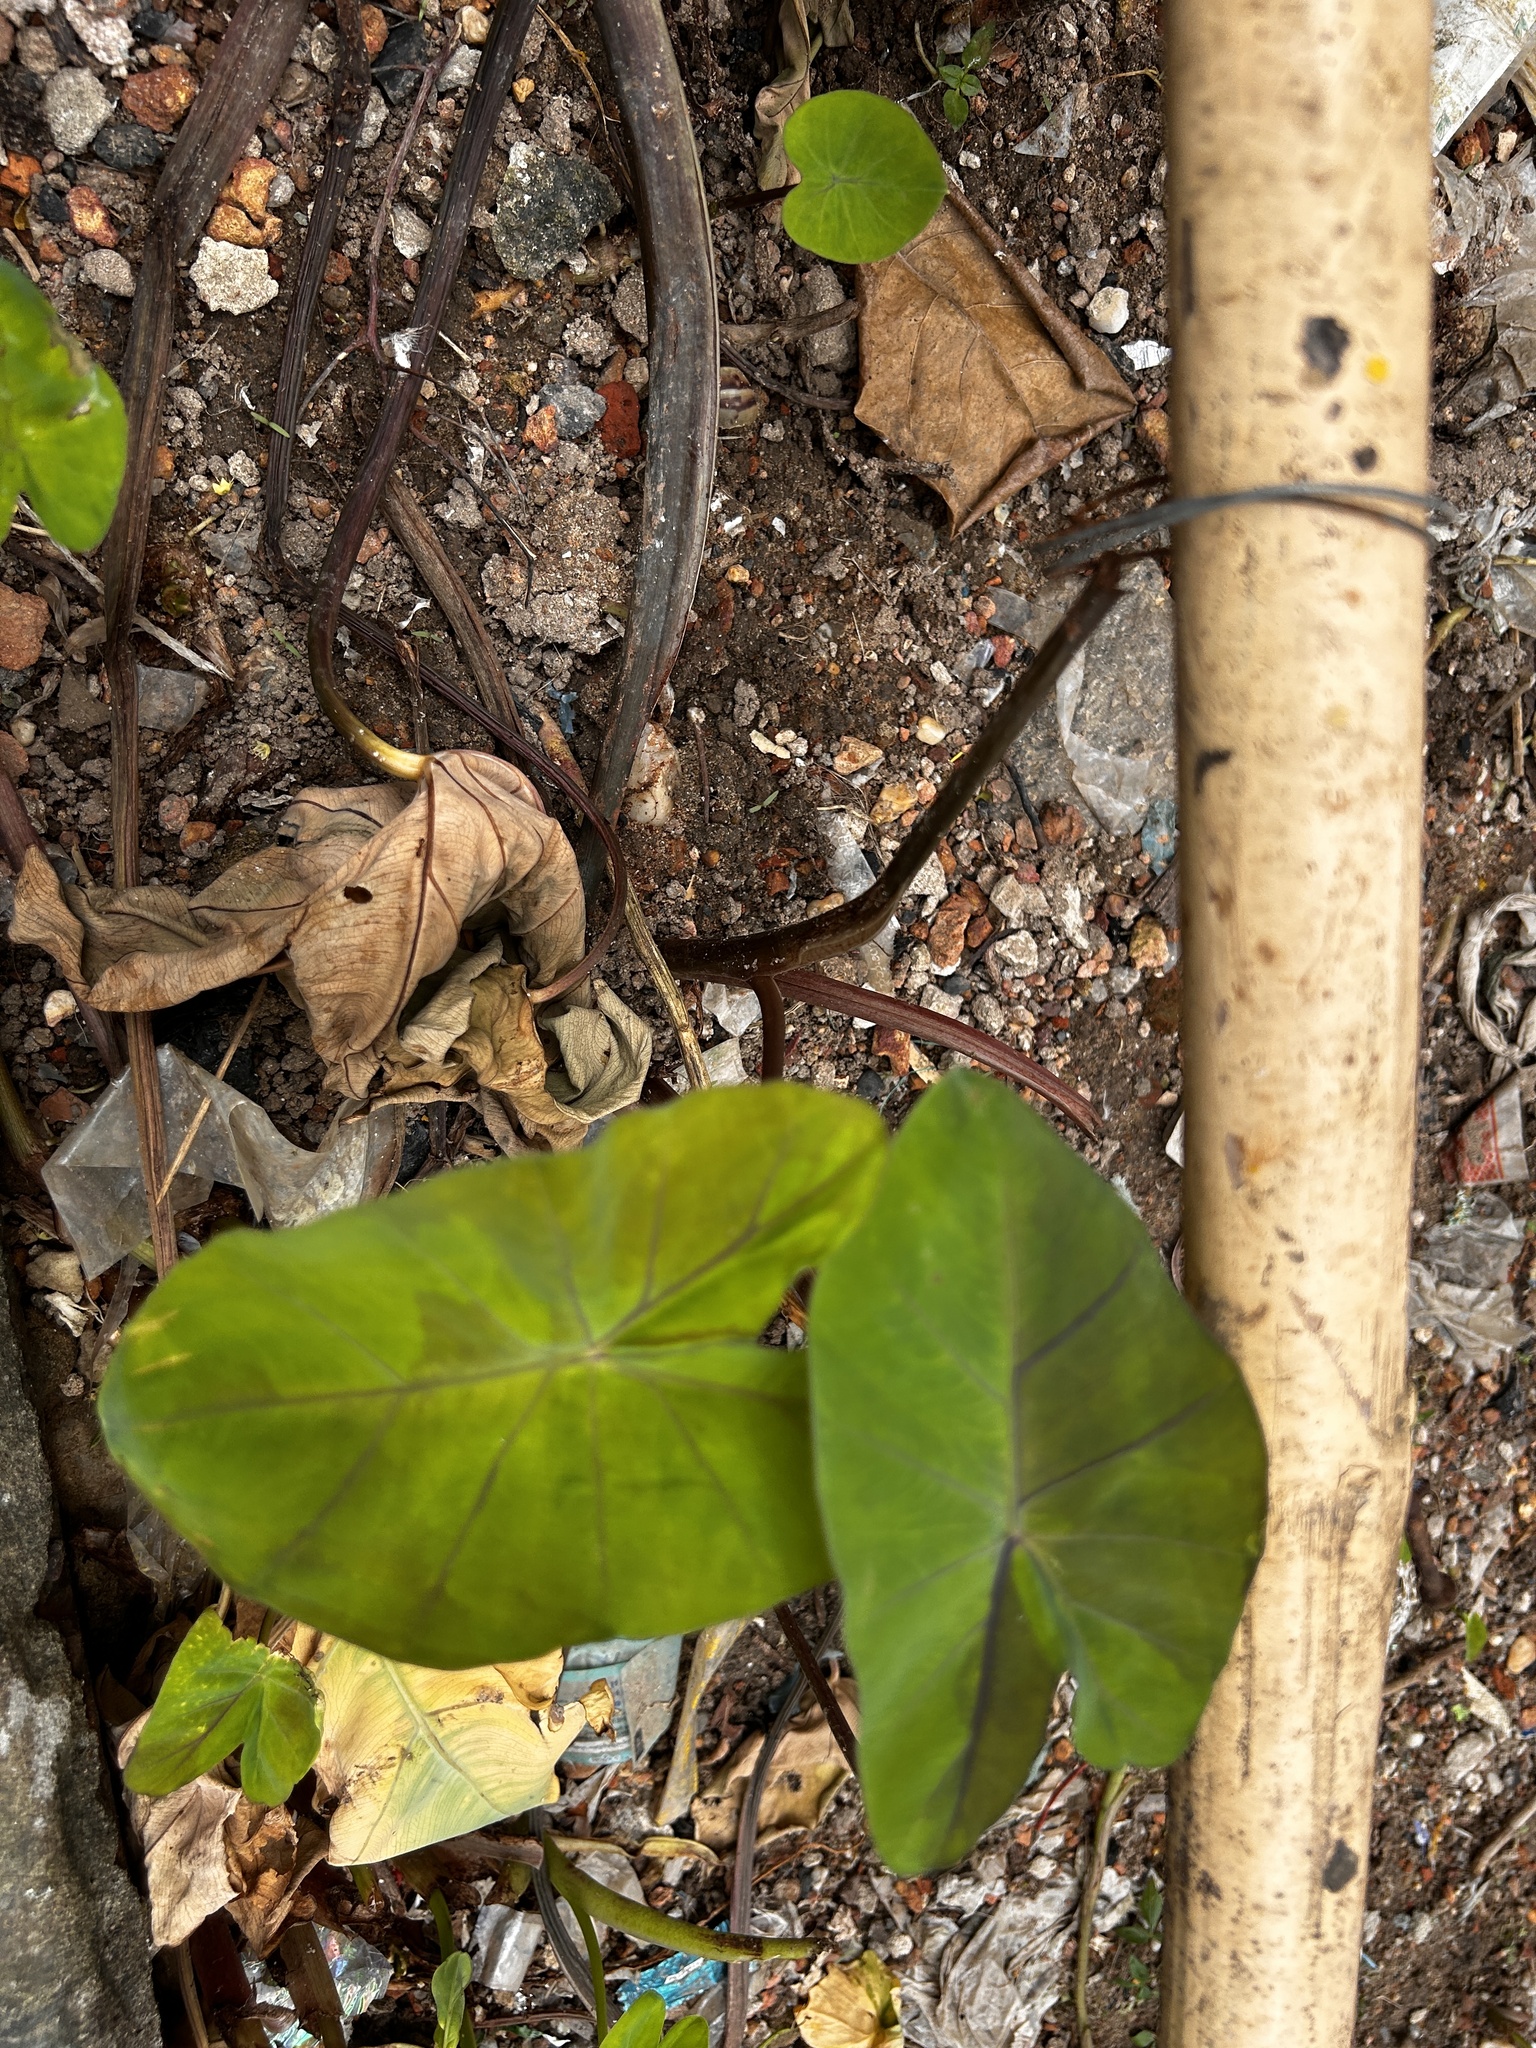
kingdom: Plantae
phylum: Tracheophyta
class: Liliopsida
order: Alismatales
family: Araceae
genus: Colocasia
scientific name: Colocasia esculenta
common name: Taro
